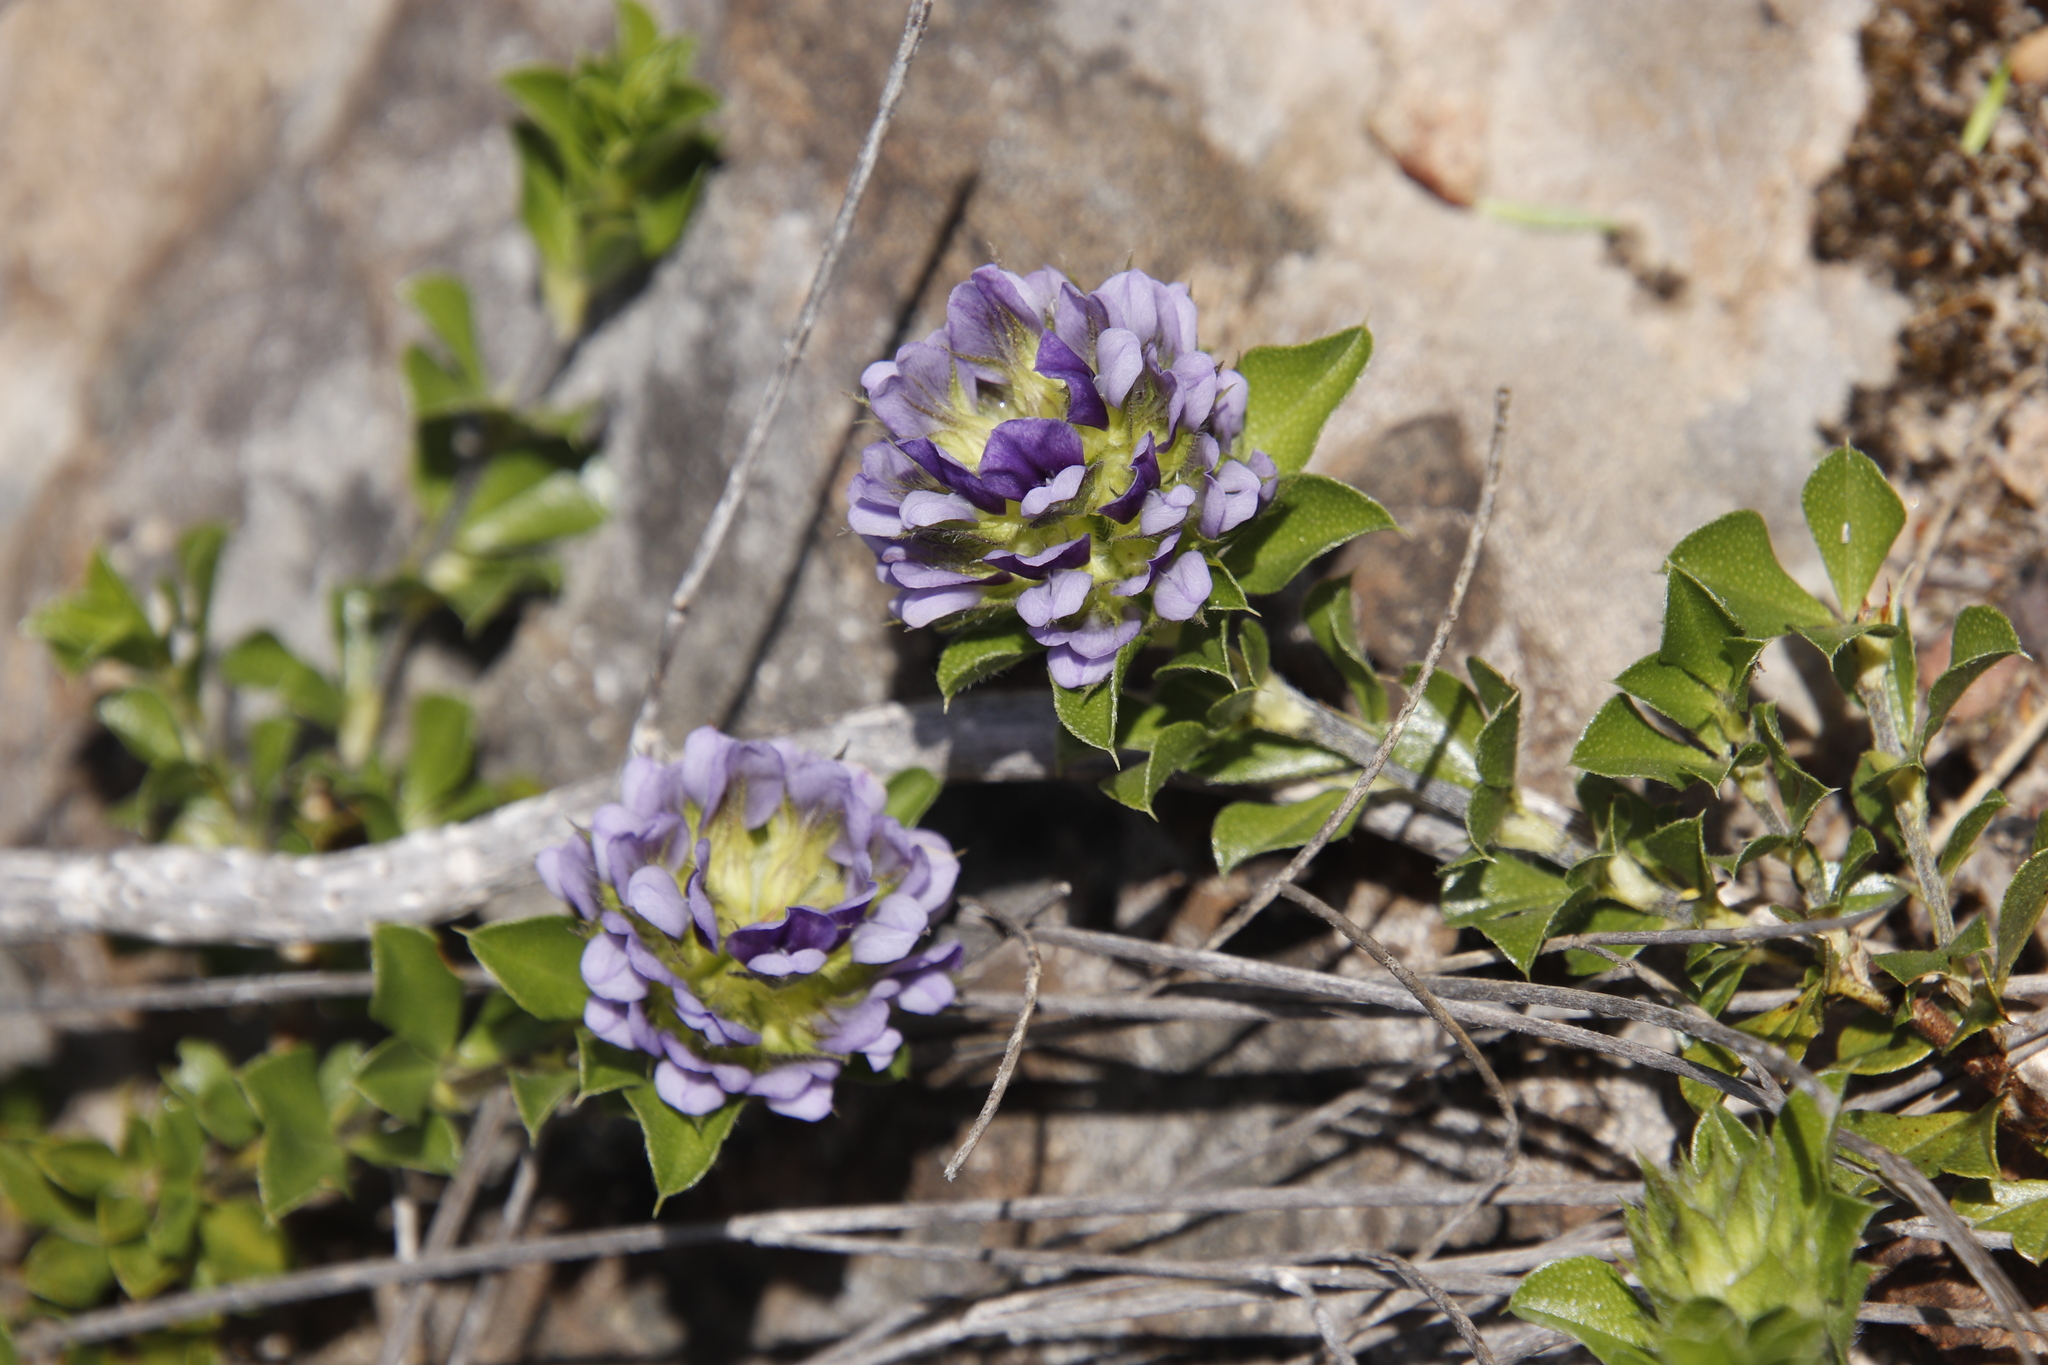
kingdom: Plantae
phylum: Tracheophyta
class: Magnoliopsida
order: Fabales
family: Fabaceae
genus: Psoralea
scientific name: Psoralea bracteolata
